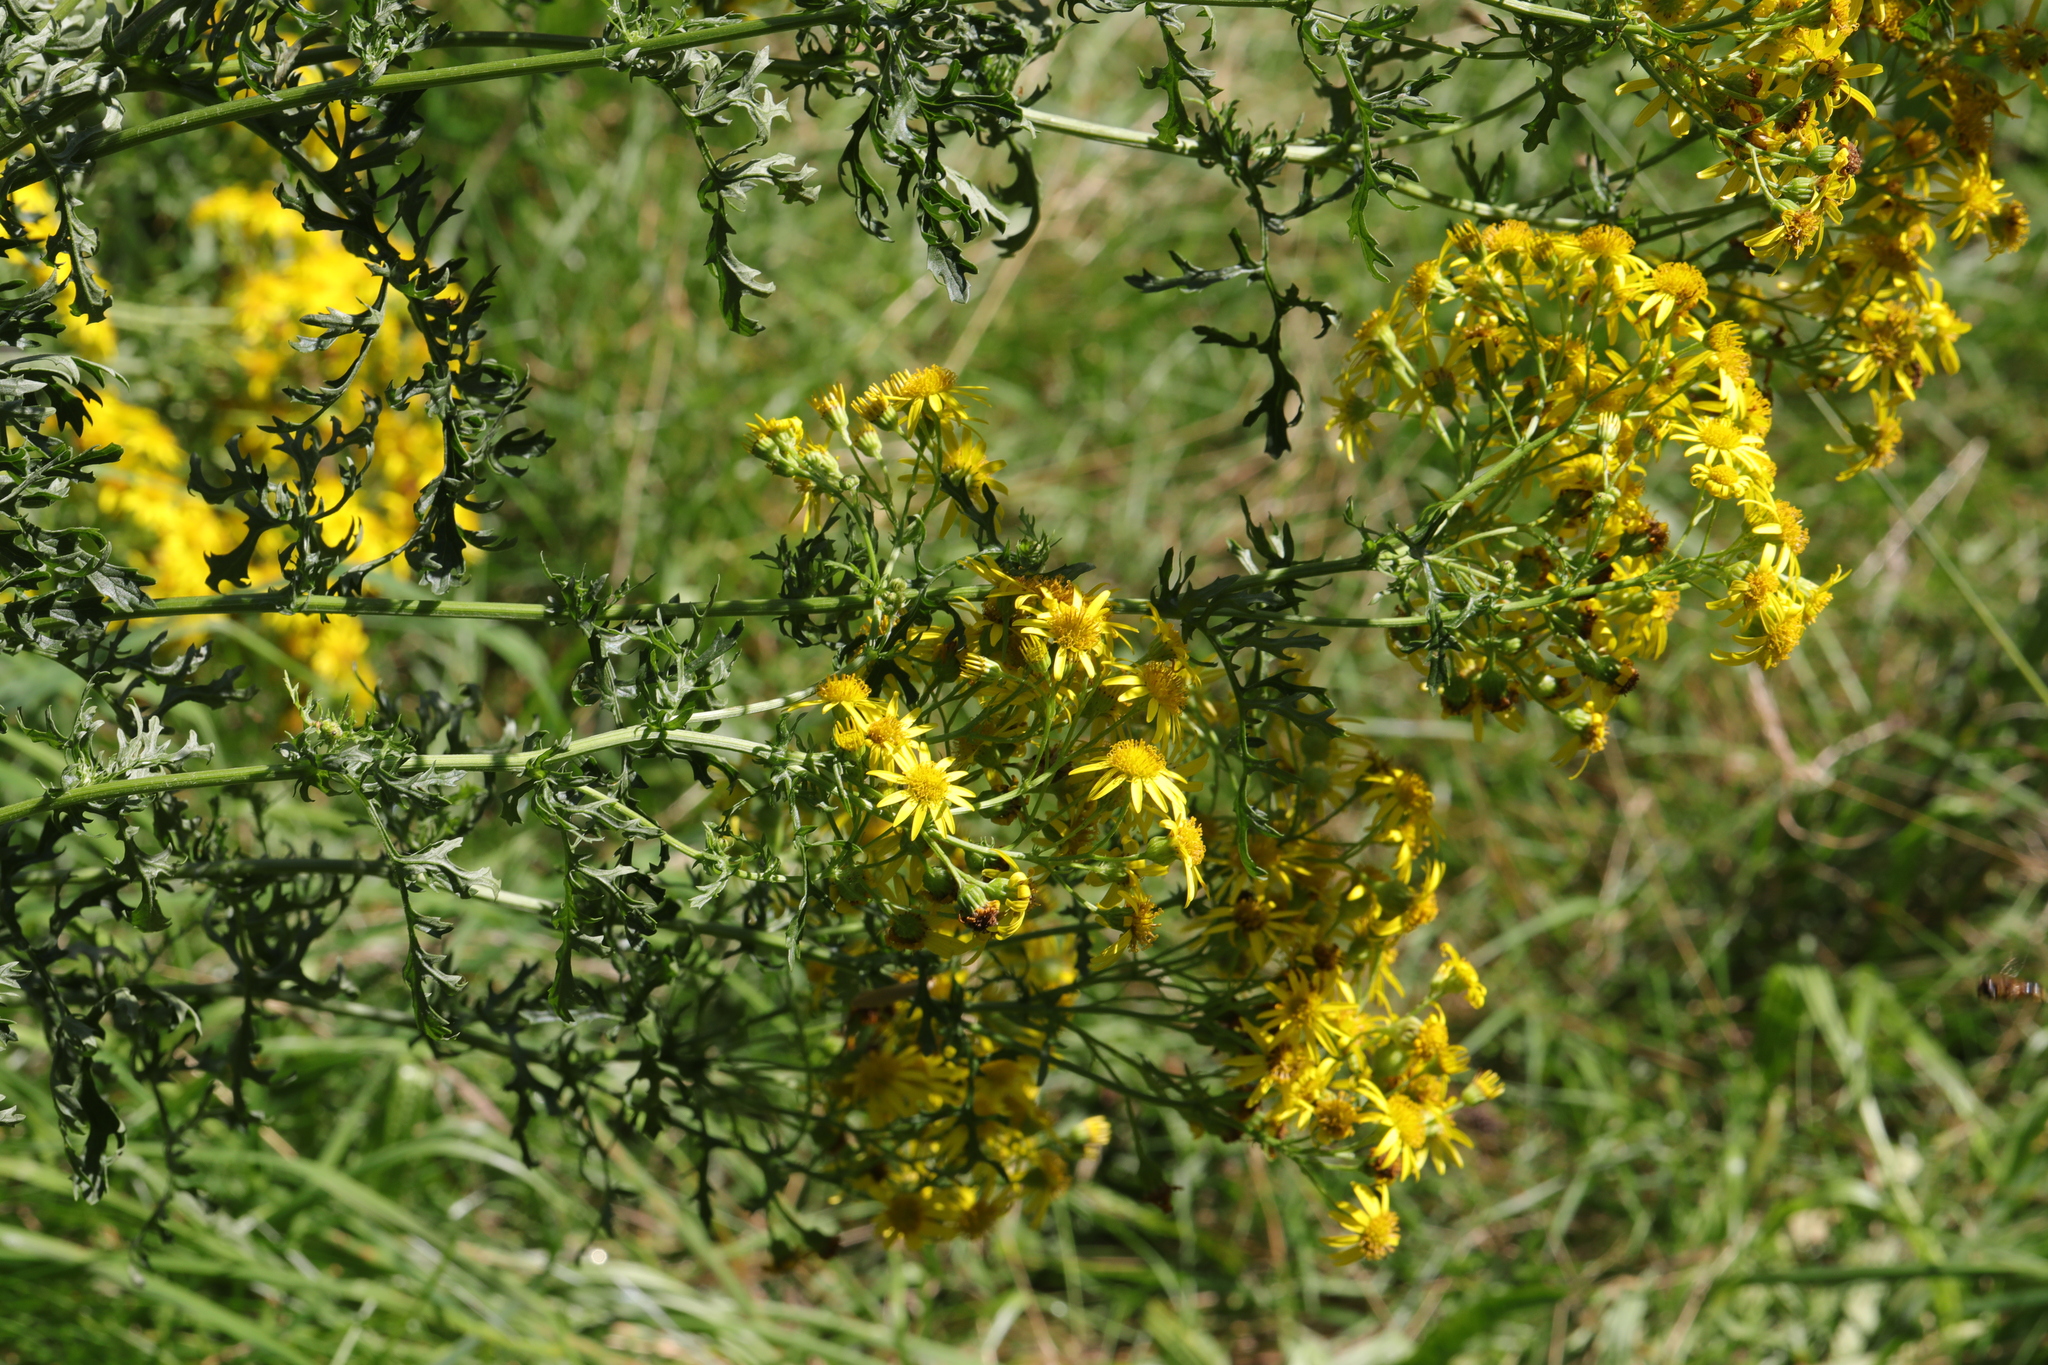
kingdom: Plantae
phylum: Tracheophyta
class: Magnoliopsida
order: Asterales
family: Asteraceae
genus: Jacobaea
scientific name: Jacobaea vulgaris
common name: Stinking willie
